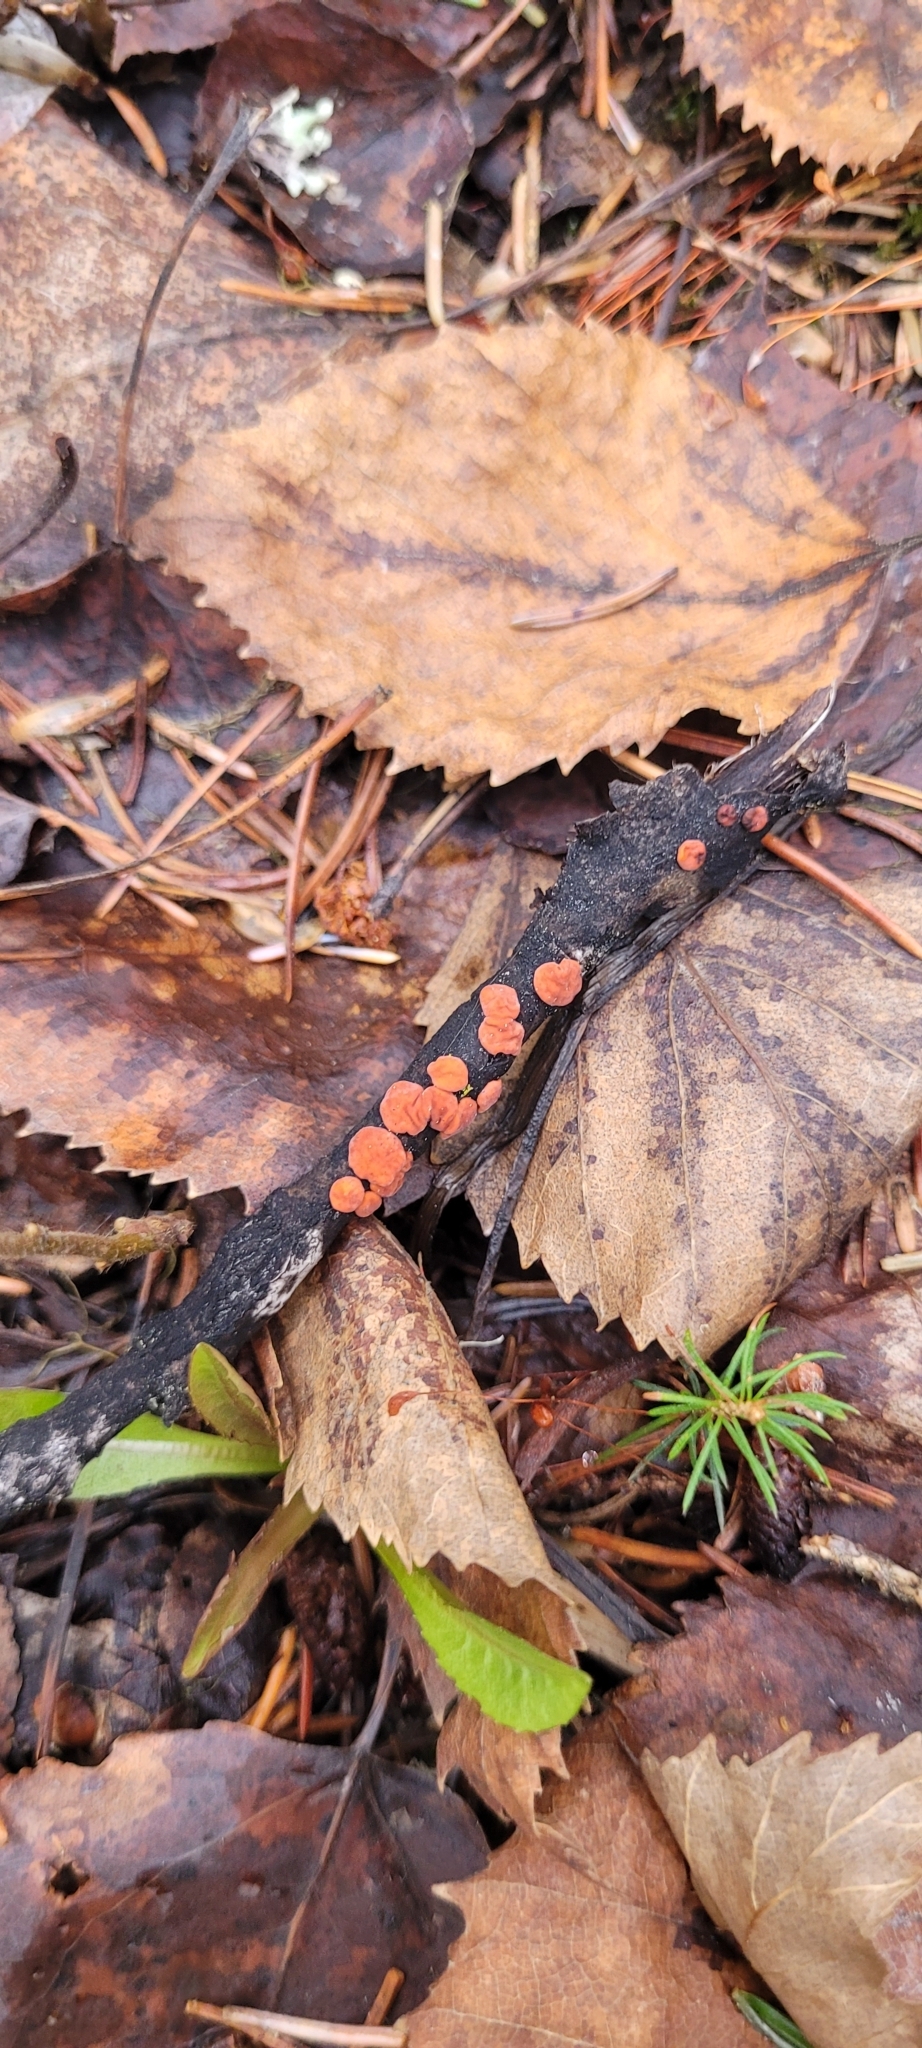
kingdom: Fungi
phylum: Basidiomycota
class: Agaricomycetes
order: Russulales
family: Peniophoraceae
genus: Peniophora
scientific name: Peniophora rufa
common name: Red tree brain fungus
